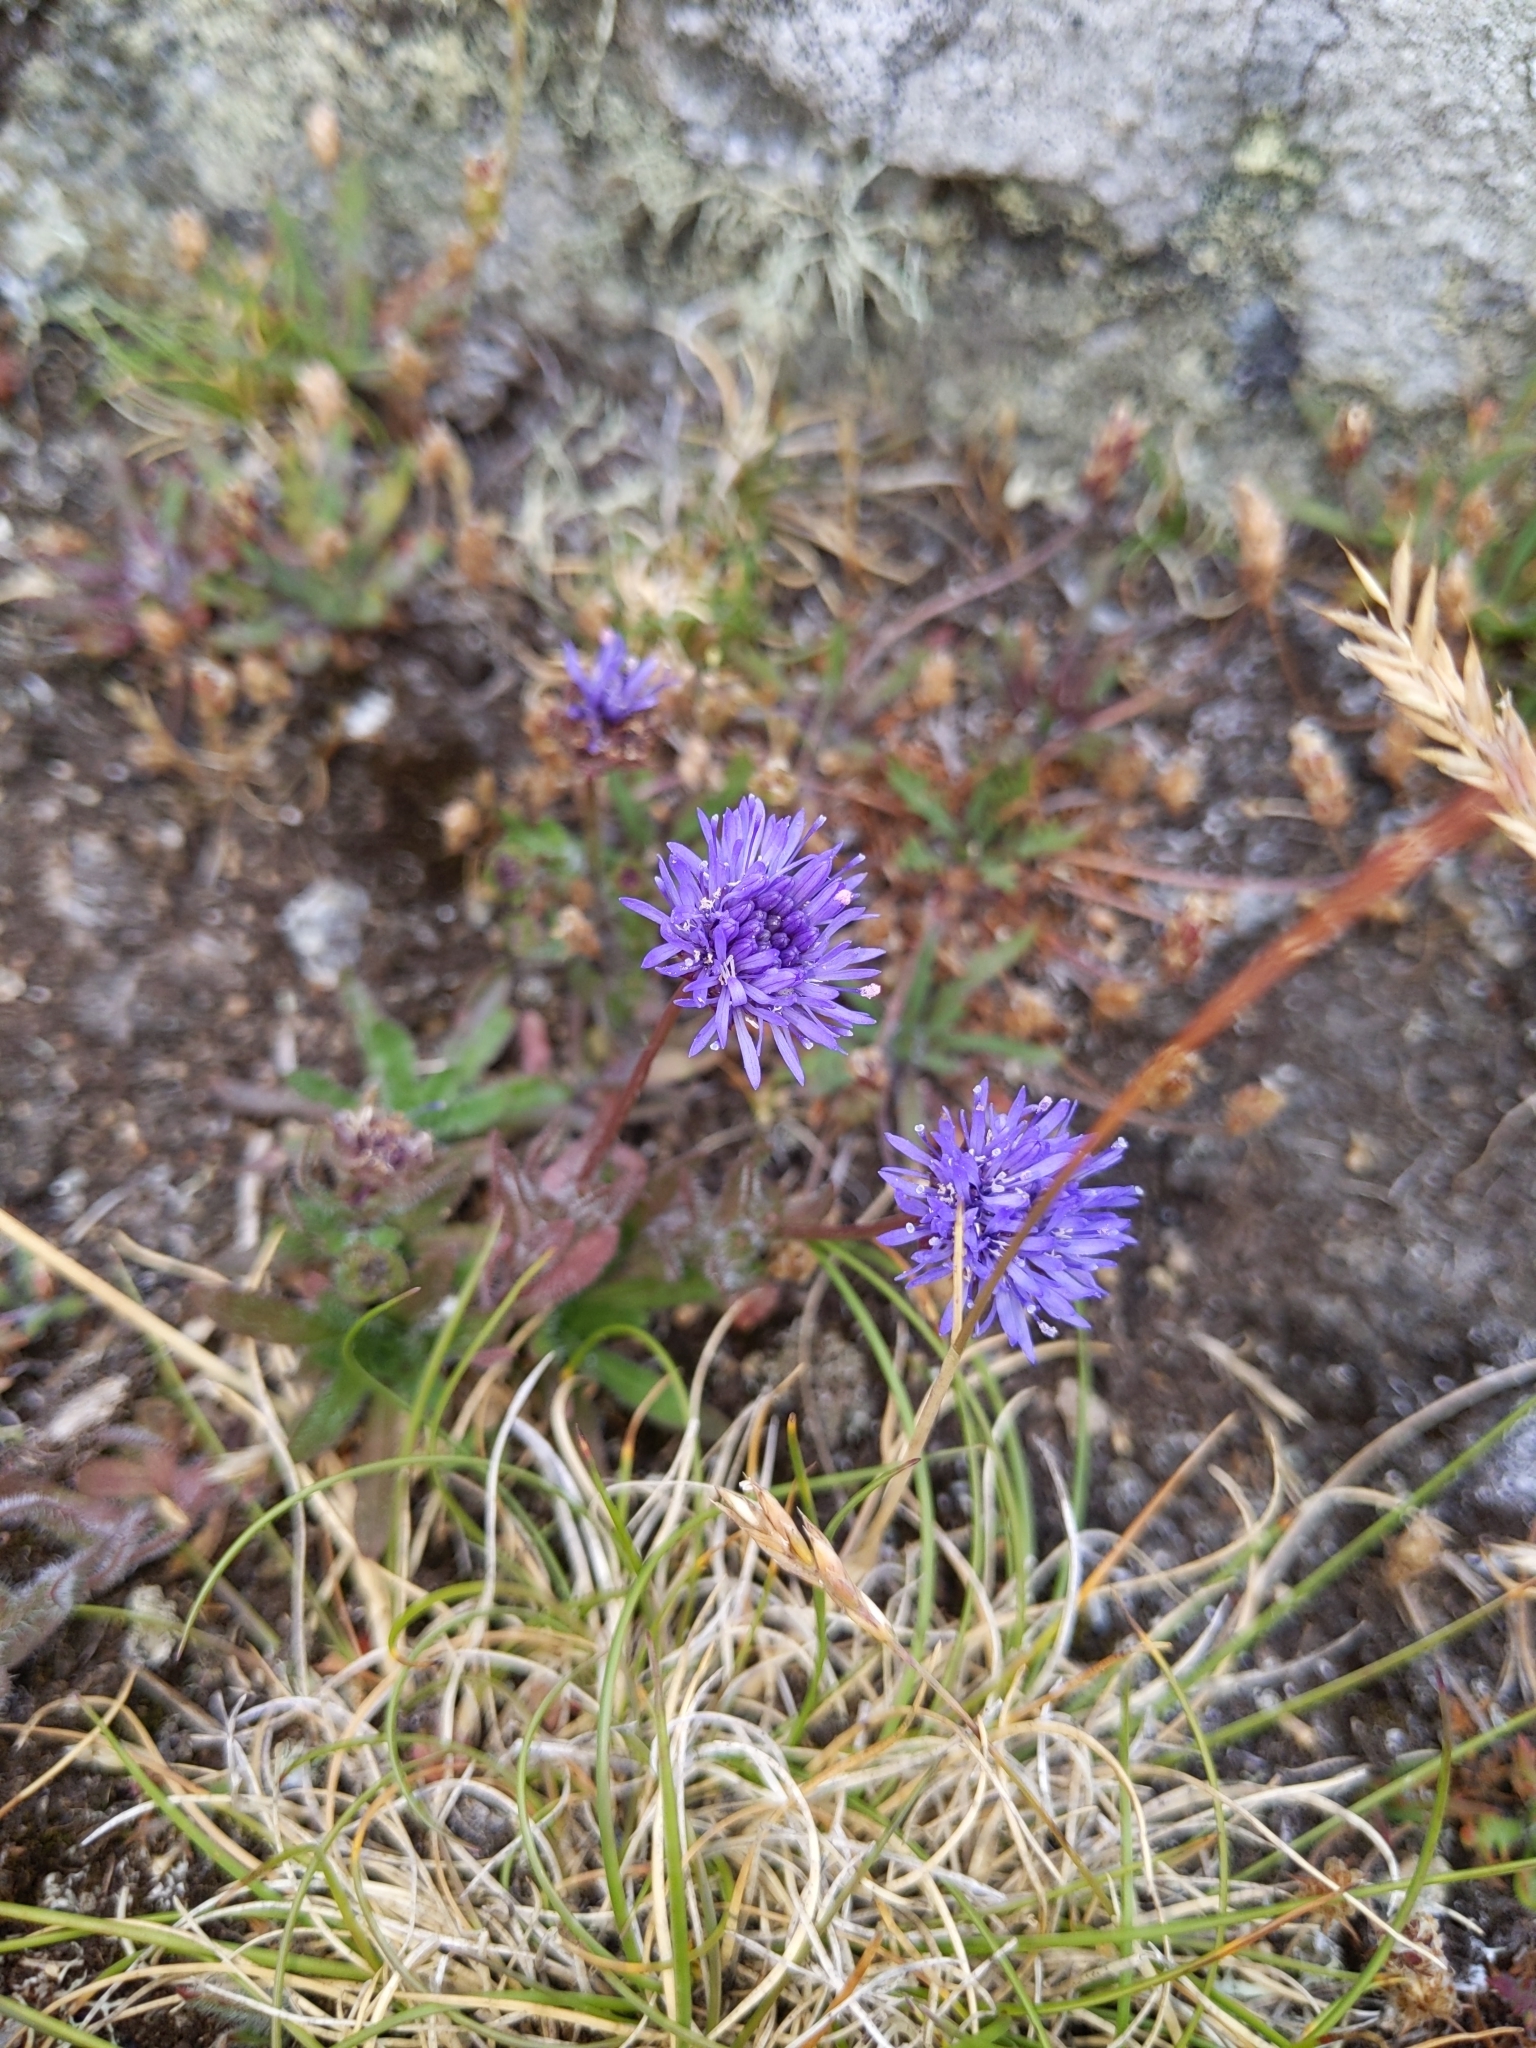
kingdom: Plantae
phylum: Tracheophyta
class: Magnoliopsida
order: Asterales
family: Campanulaceae
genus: Jasione
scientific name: Jasione montana
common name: Sheep's-bit
